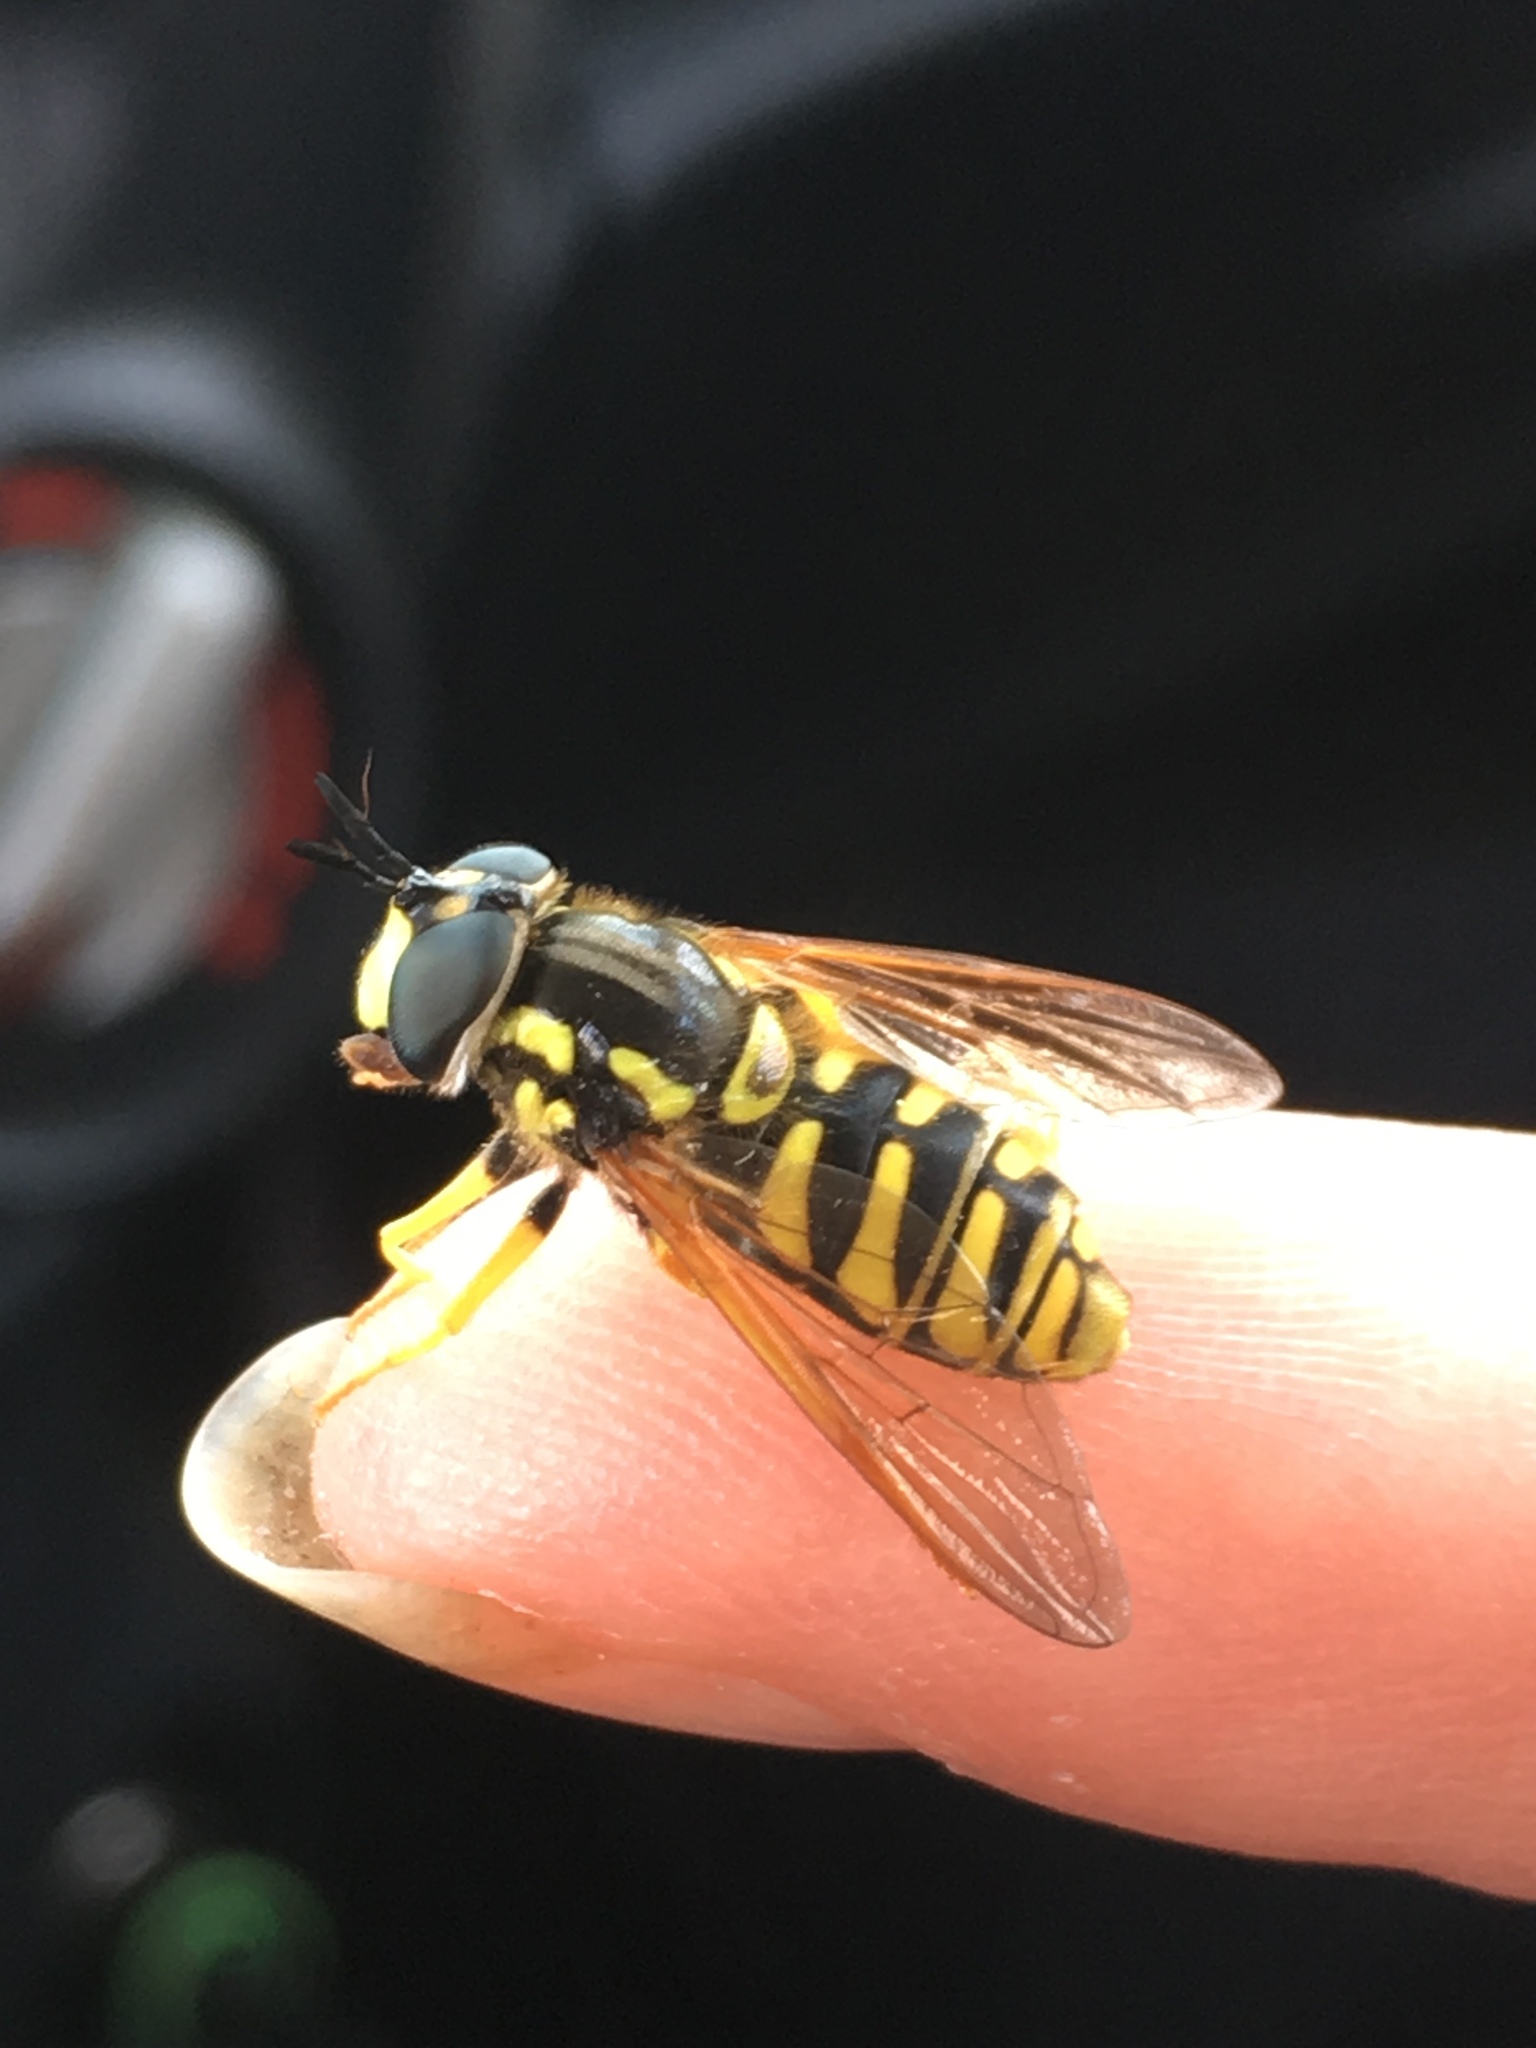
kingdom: Animalia
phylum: Arthropoda
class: Insecta
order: Diptera
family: Syrphidae
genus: Chrysotoxum
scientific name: Chrysotoxum cautum
